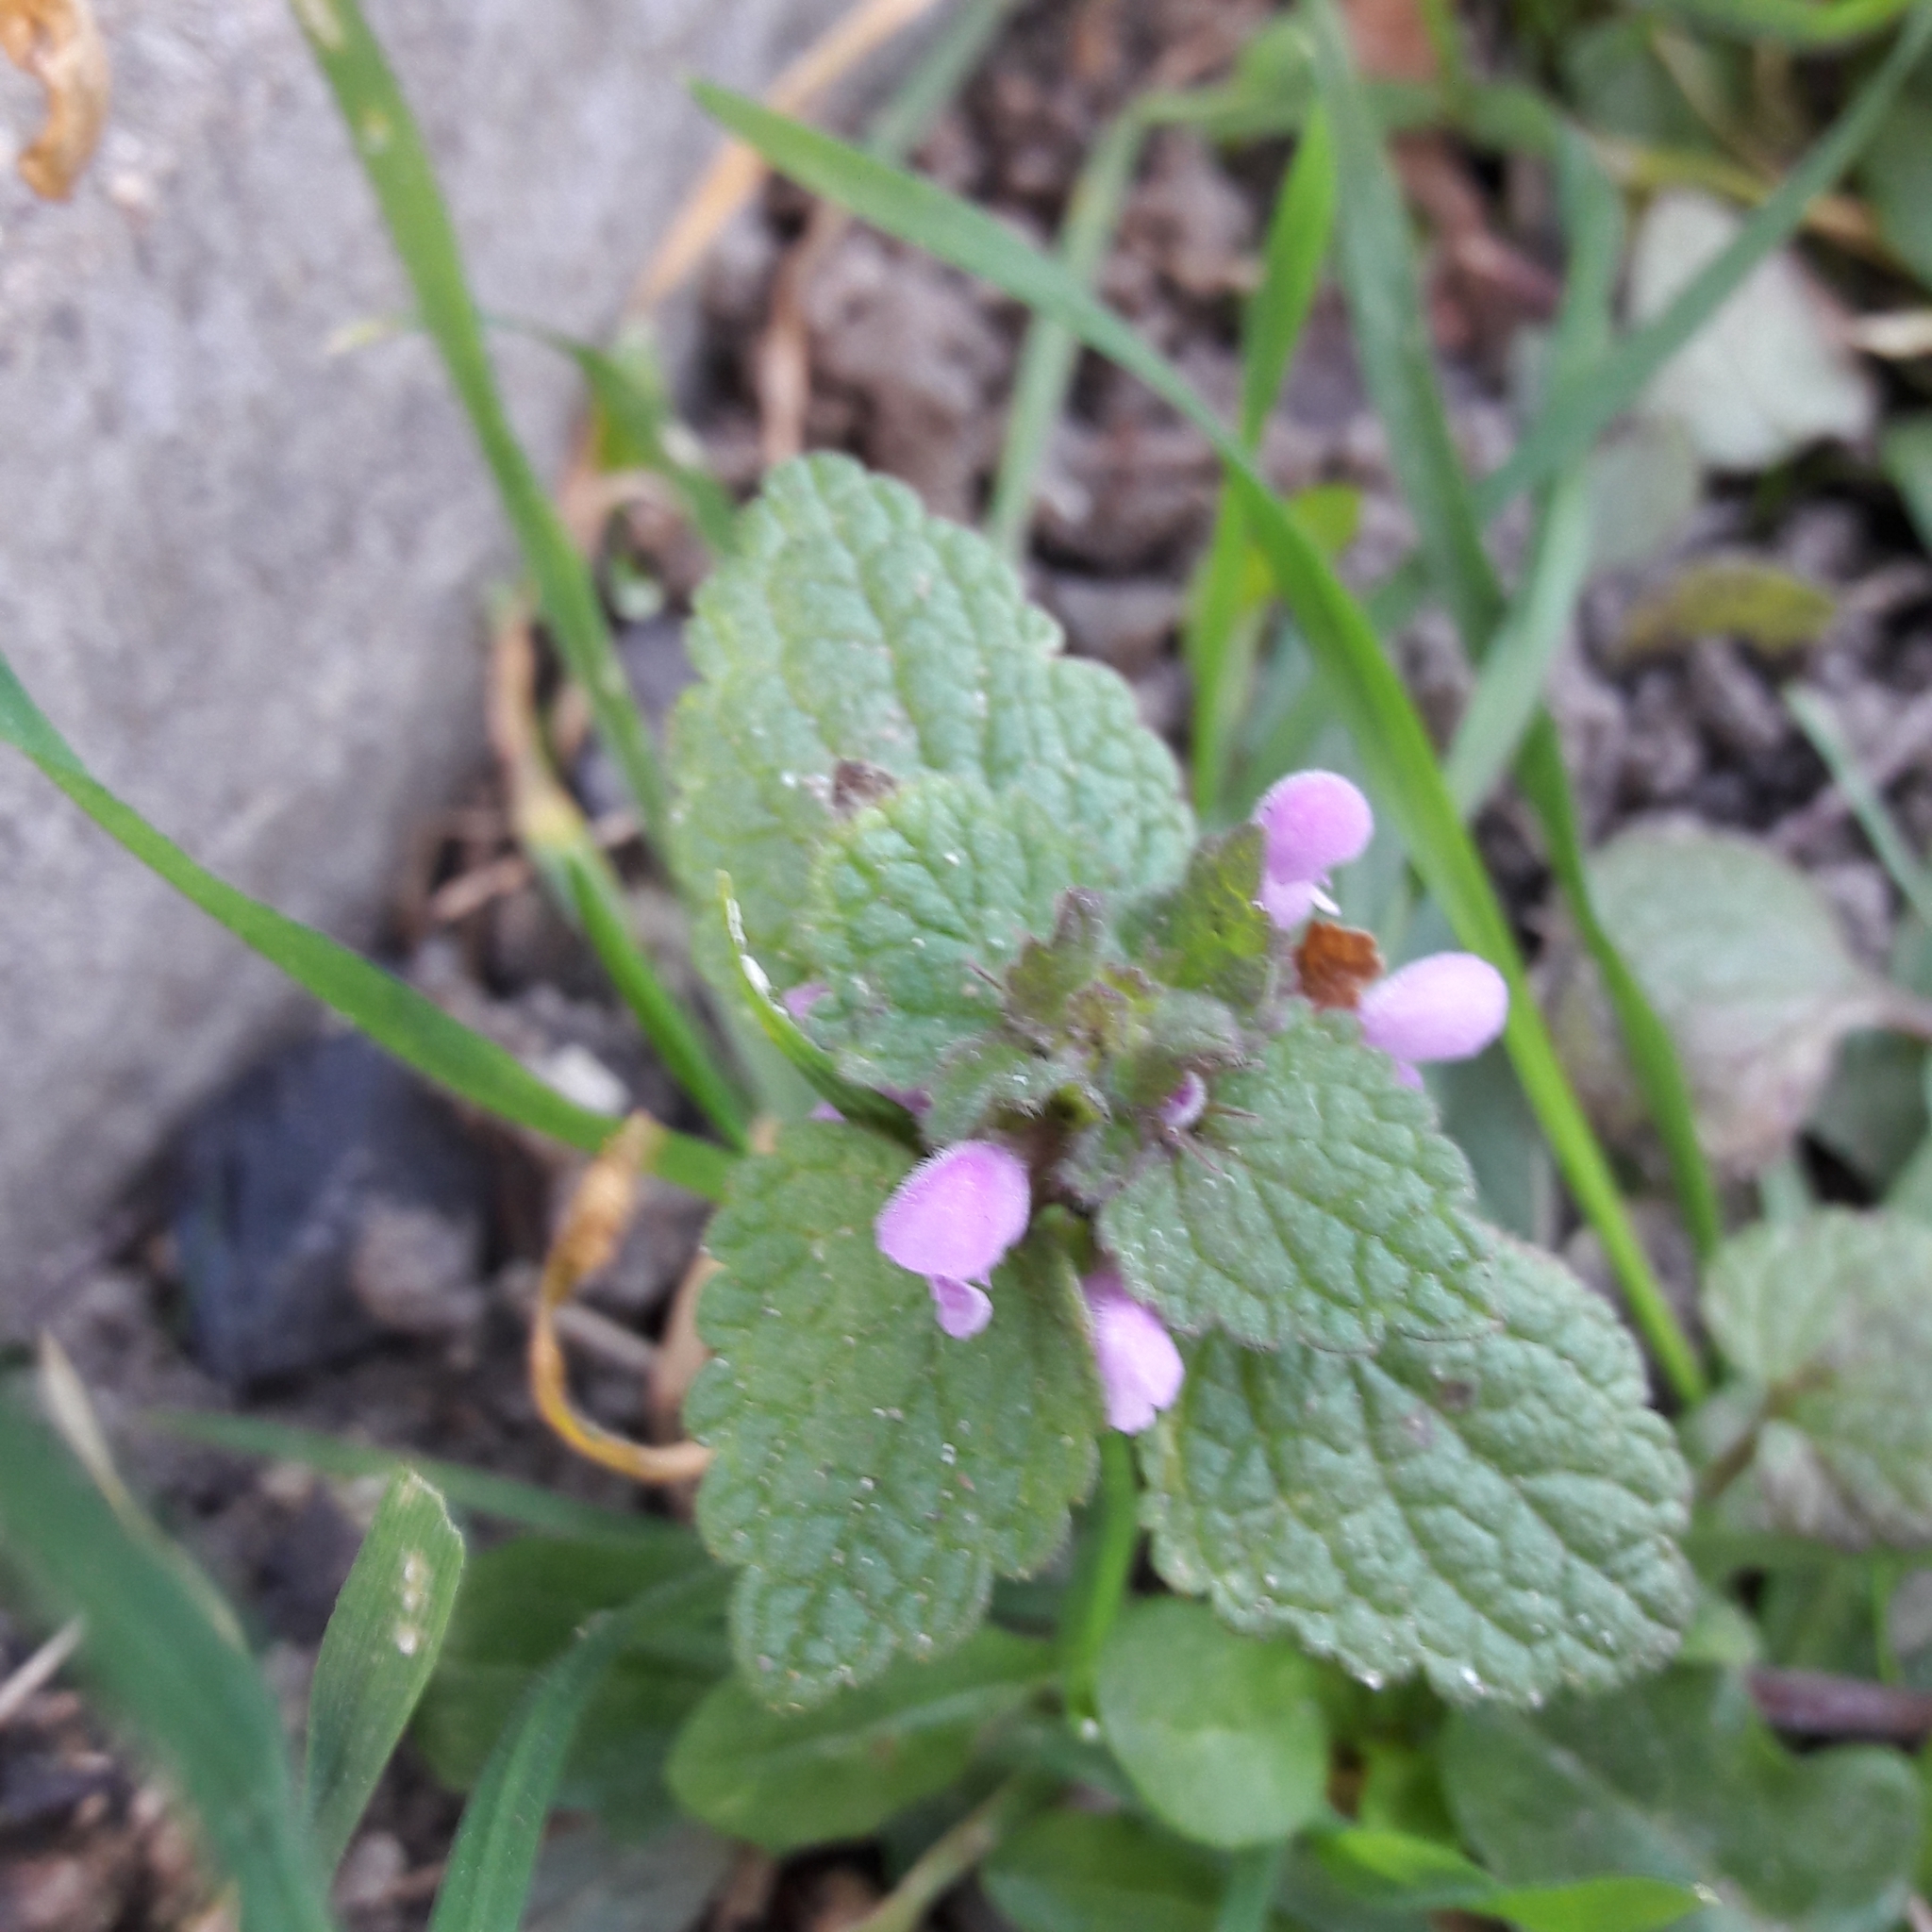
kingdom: Plantae
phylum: Tracheophyta
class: Magnoliopsida
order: Lamiales
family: Lamiaceae
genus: Lamium
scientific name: Lamium purpureum
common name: Red dead-nettle
